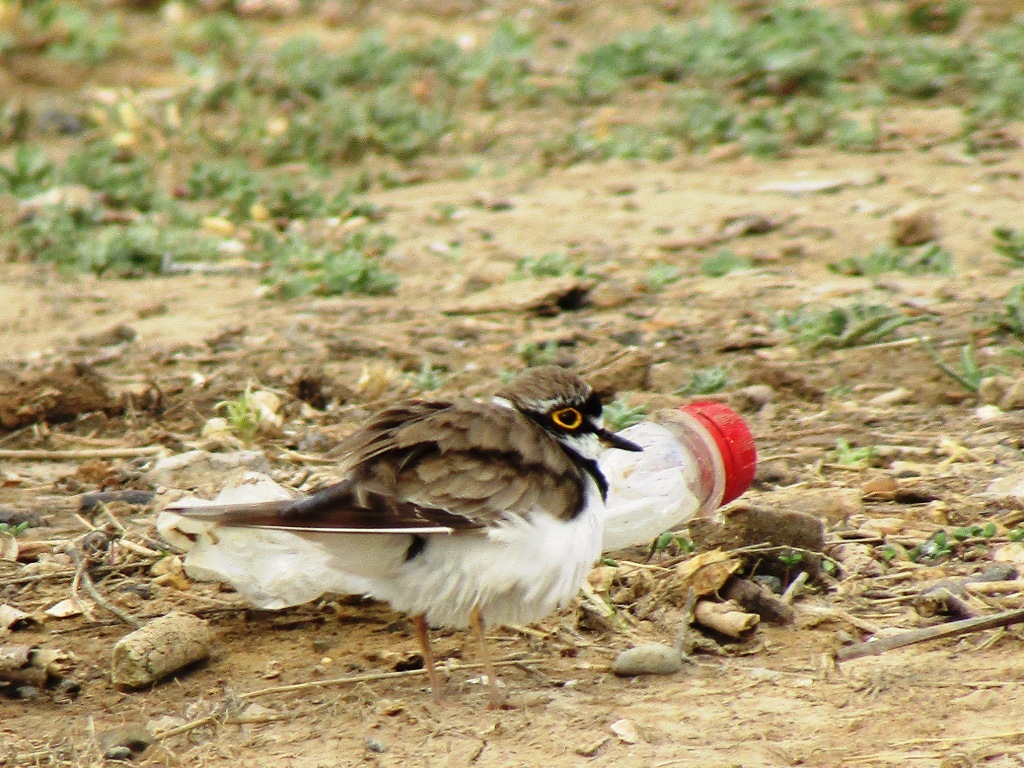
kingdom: Animalia
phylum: Chordata
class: Aves
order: Charadriiformes
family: Charadriidae
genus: Charadrius
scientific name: Charadrius dubius
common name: Little ringed plover
